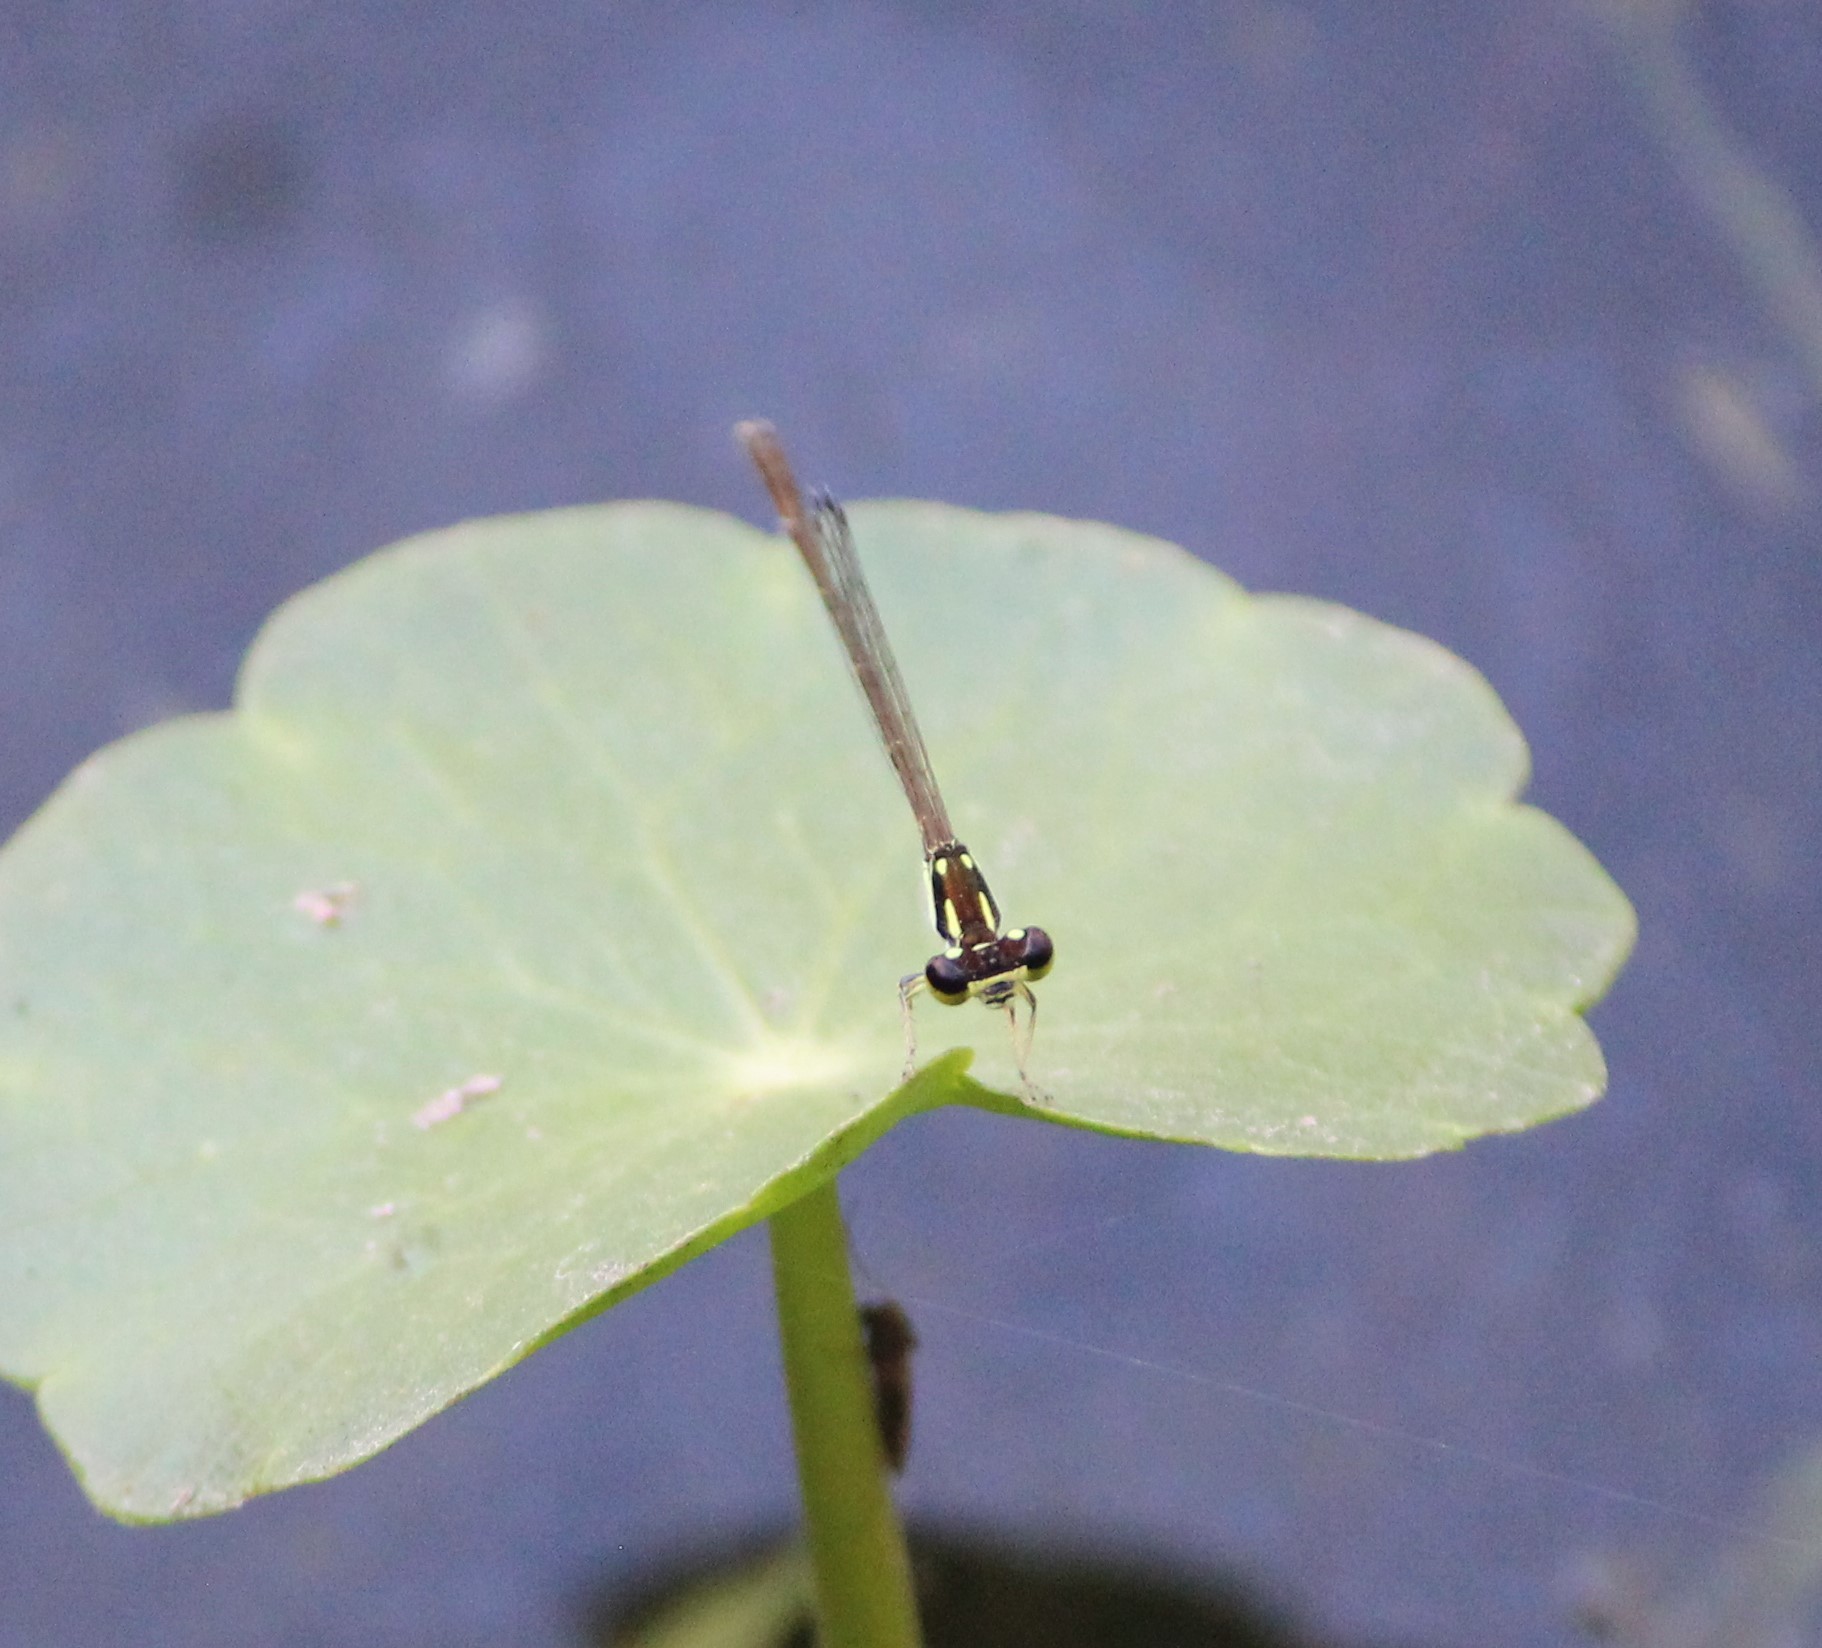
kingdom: Animalia
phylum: Arthropoda
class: Insecta
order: Odonata
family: Coenagrionidae
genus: Ischnura
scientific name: Ischnura posita
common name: Fragile forktail
